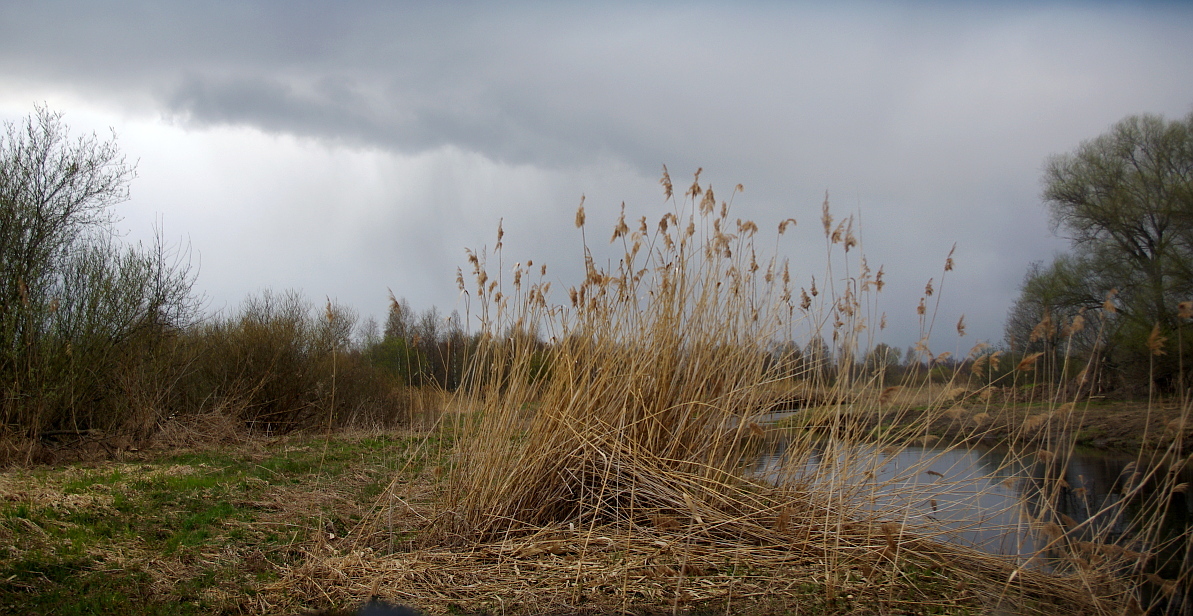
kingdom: Plantae
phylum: Tracheophyta
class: Liliopsida
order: Poales
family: Poaceae
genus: Phragmites
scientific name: Phragmites australis
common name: Common reed
